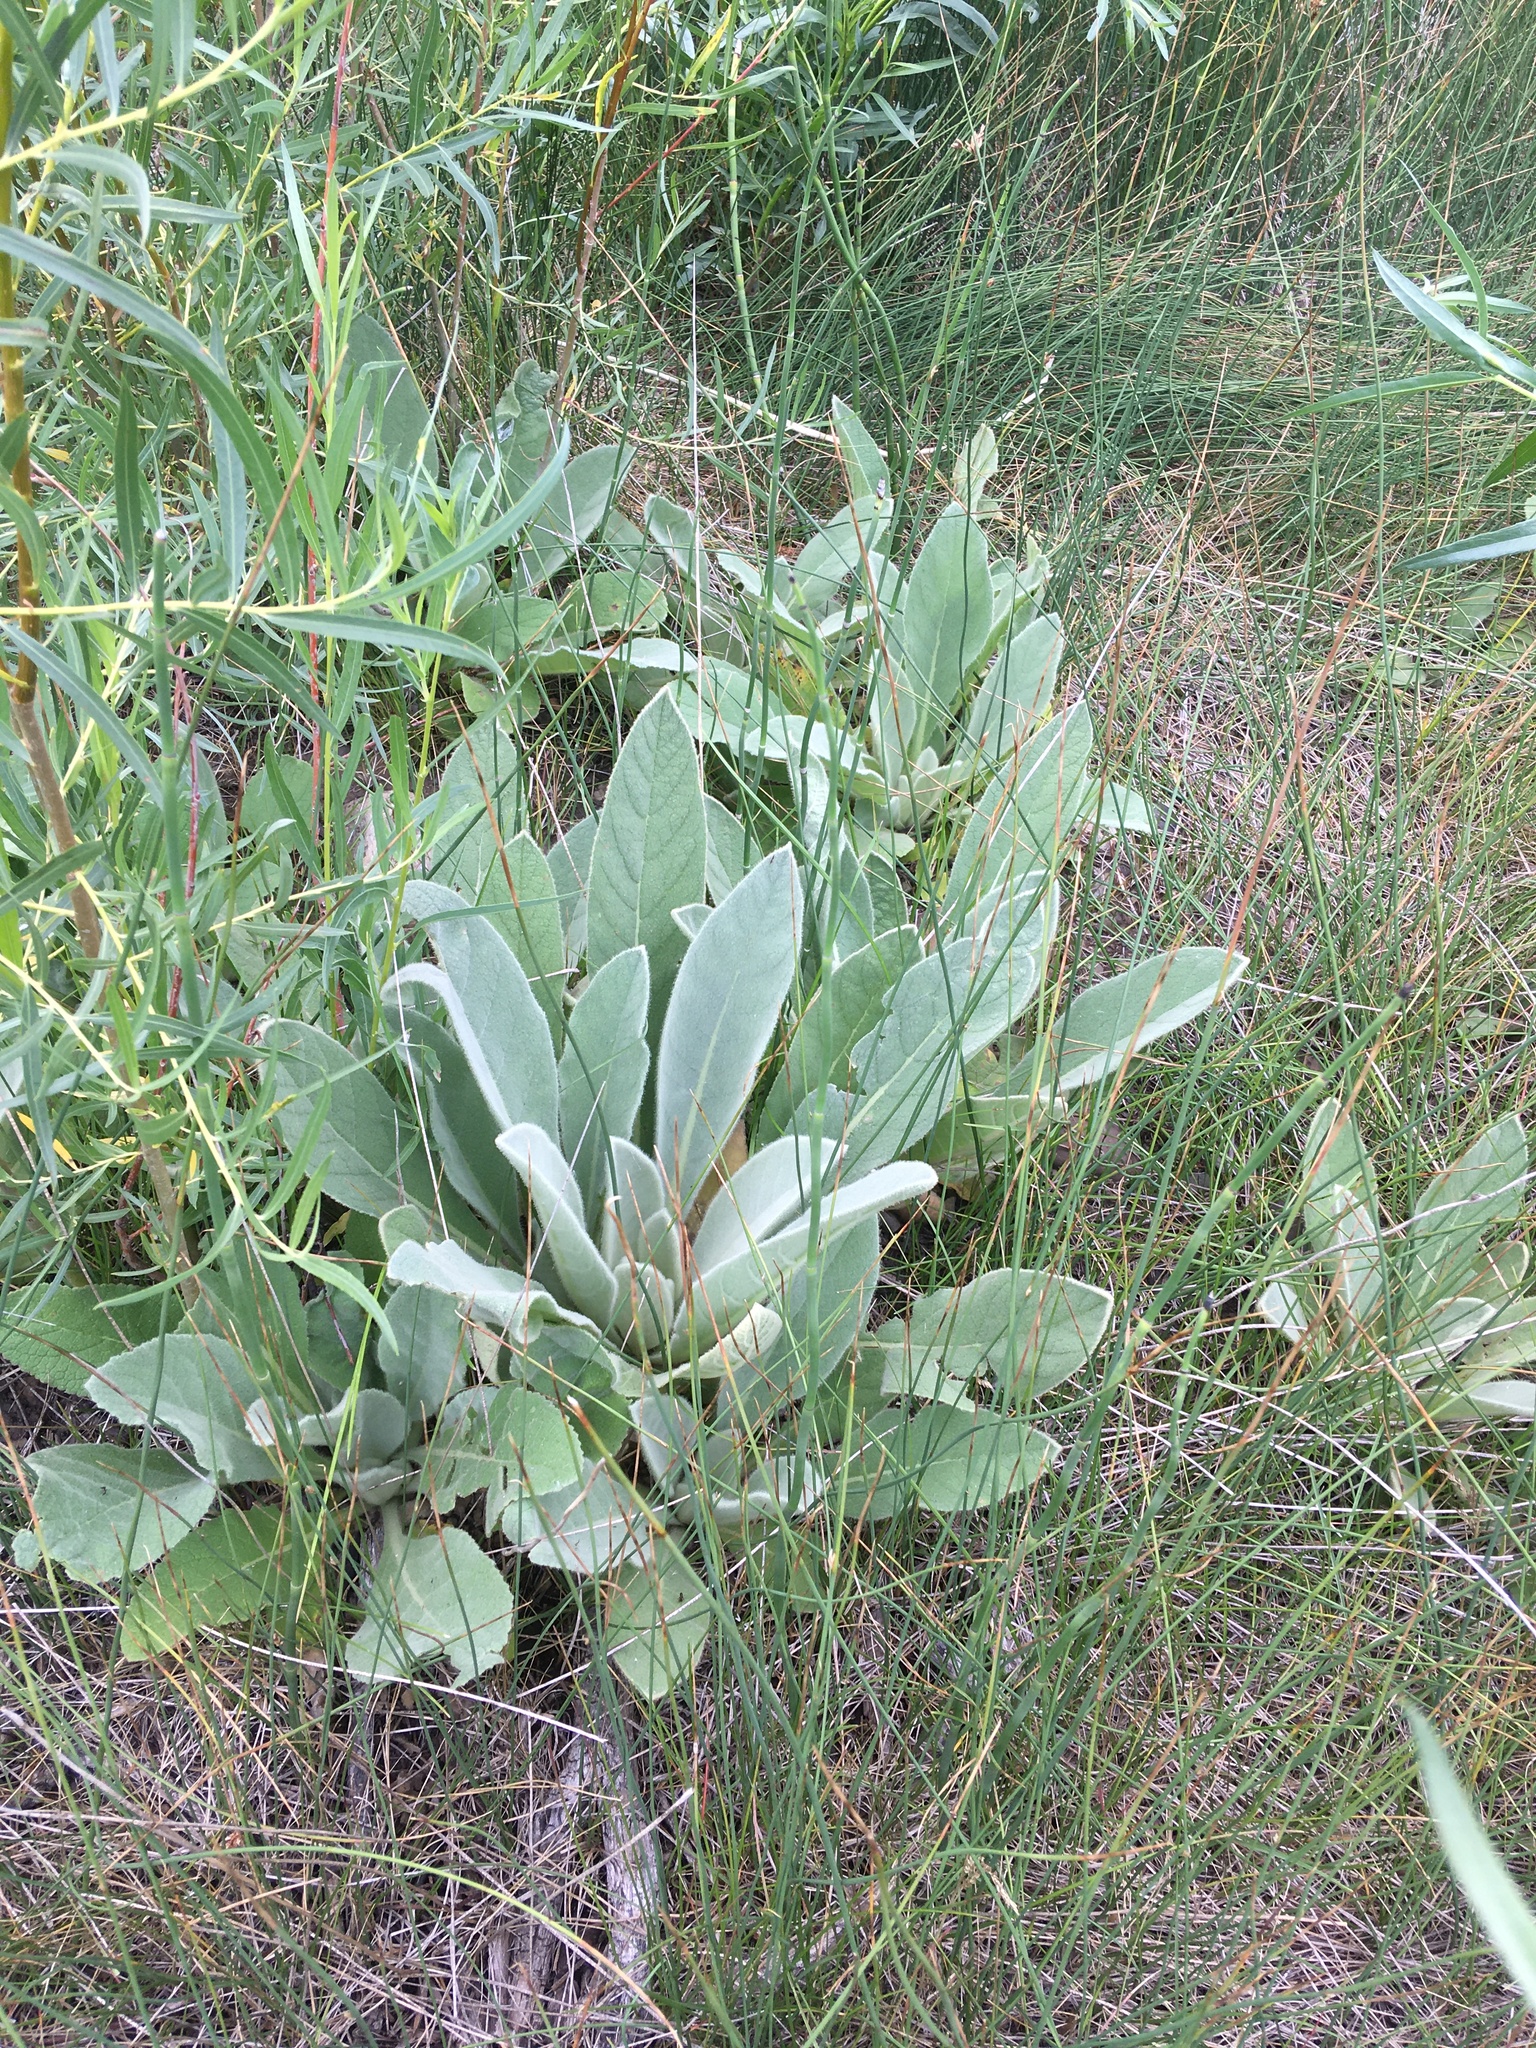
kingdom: Plantae
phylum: Tracheophyta
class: Magnoliopsida
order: Lamiales
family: Scrophulariaceae
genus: Verbascum
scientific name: Verbascum thapsus
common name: Common mullein
